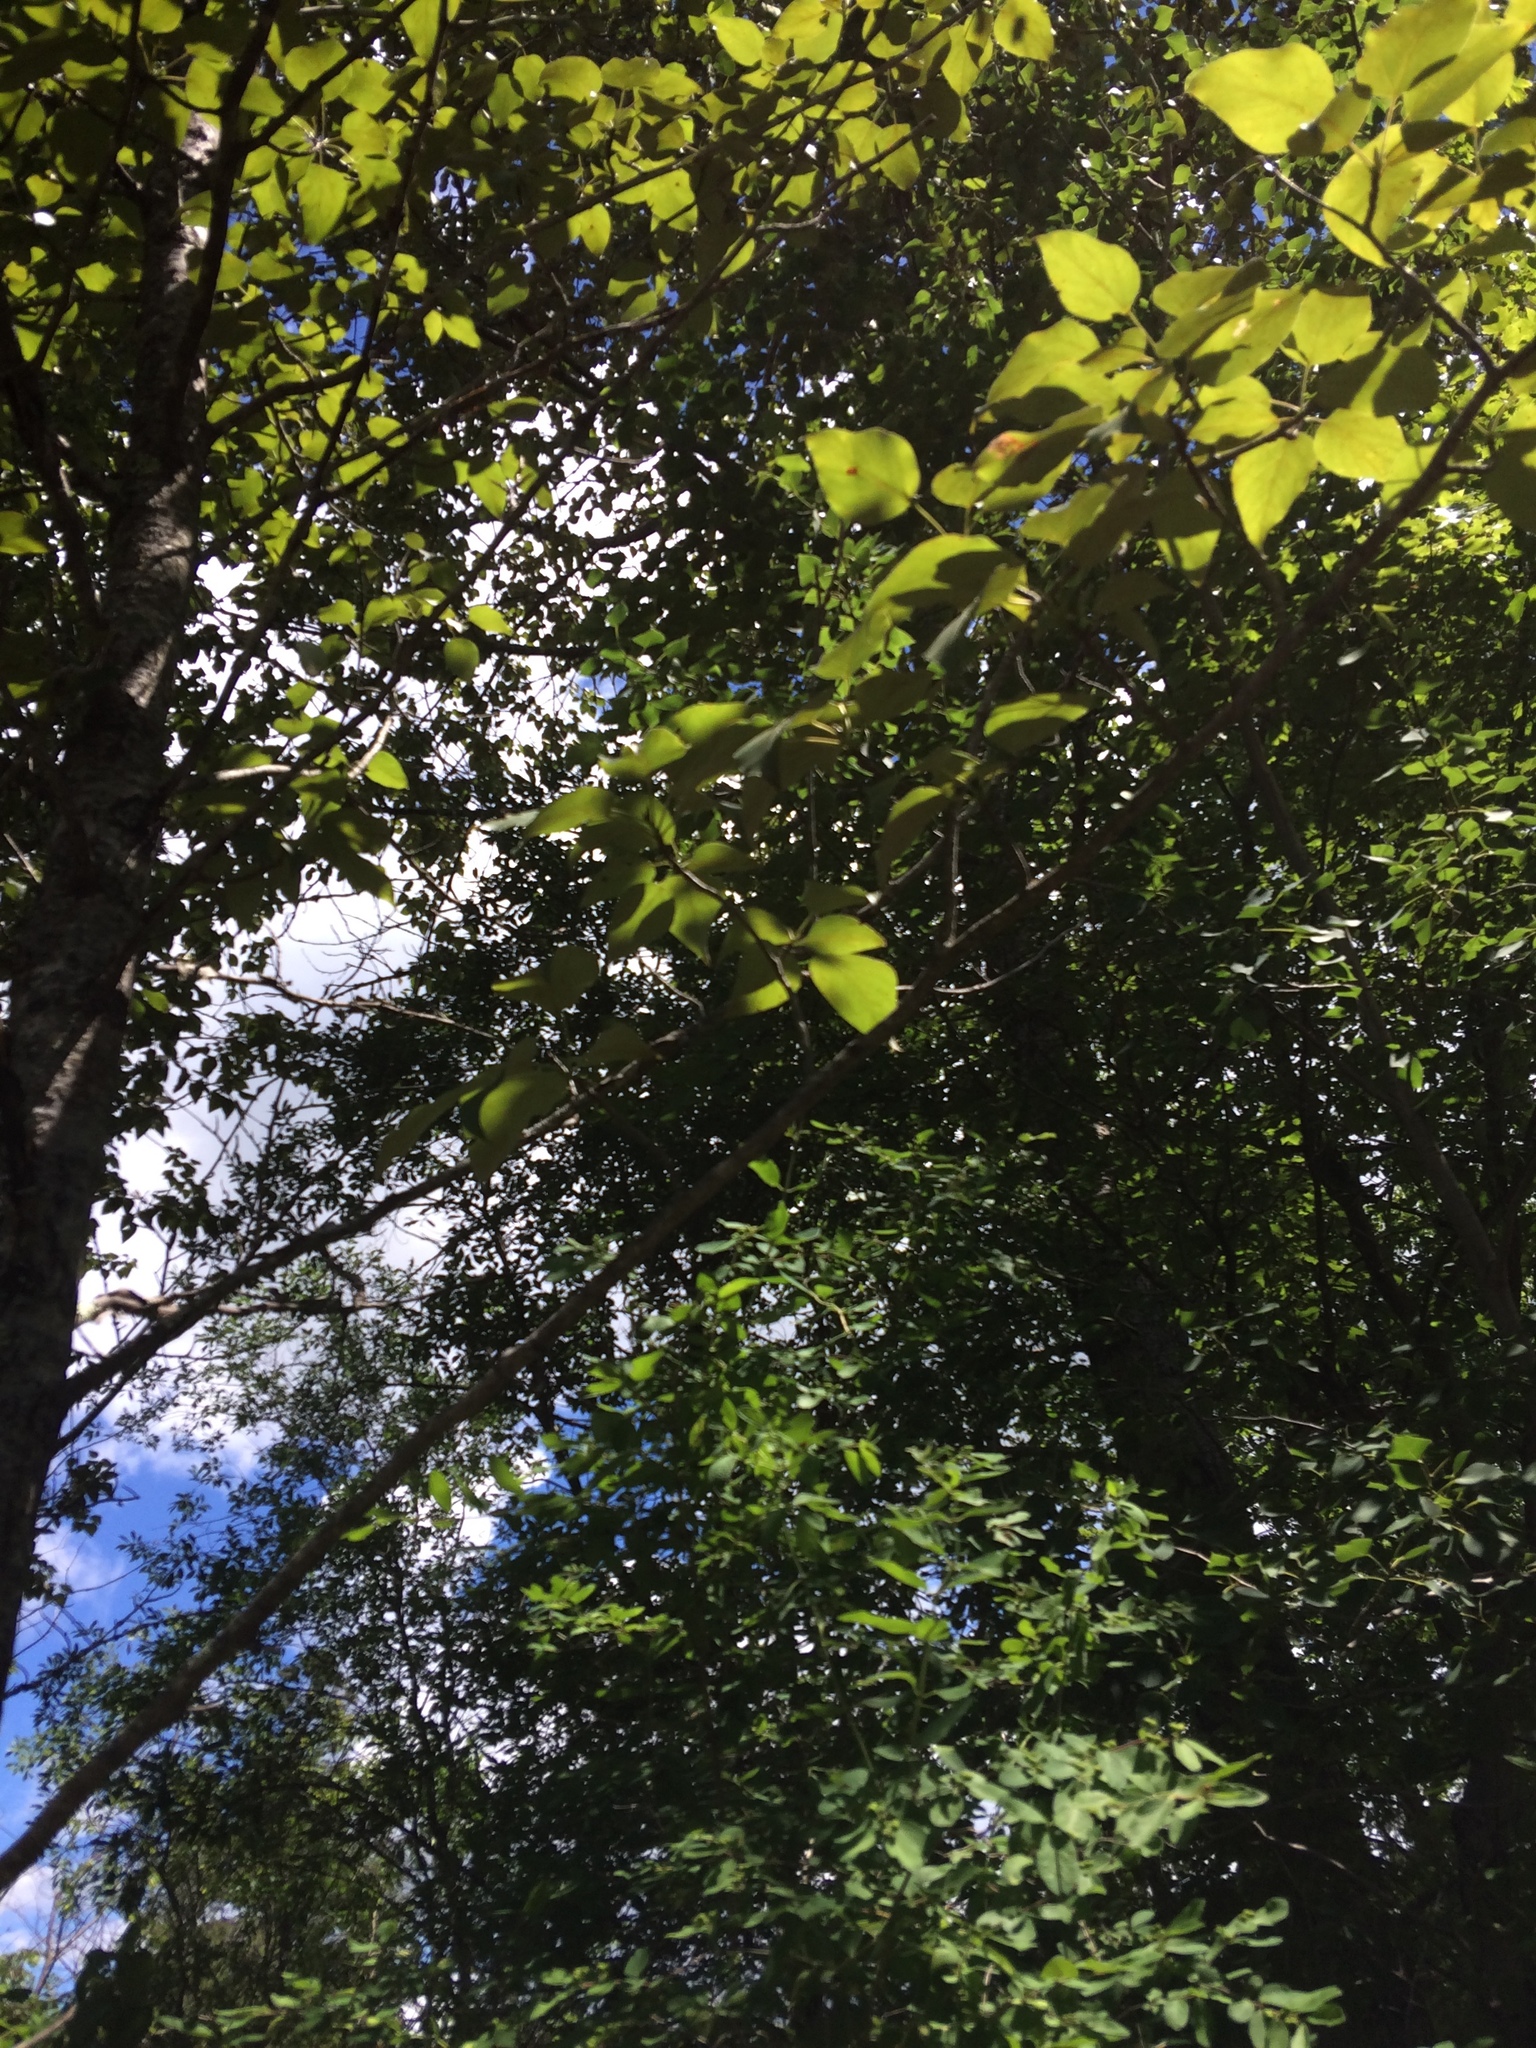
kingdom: Plantae
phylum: Tracheophyta
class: Magnoliopsida
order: Malpighiales
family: Salicaceae
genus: Populus
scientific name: Populus balsamifera
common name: Balsam poplar
